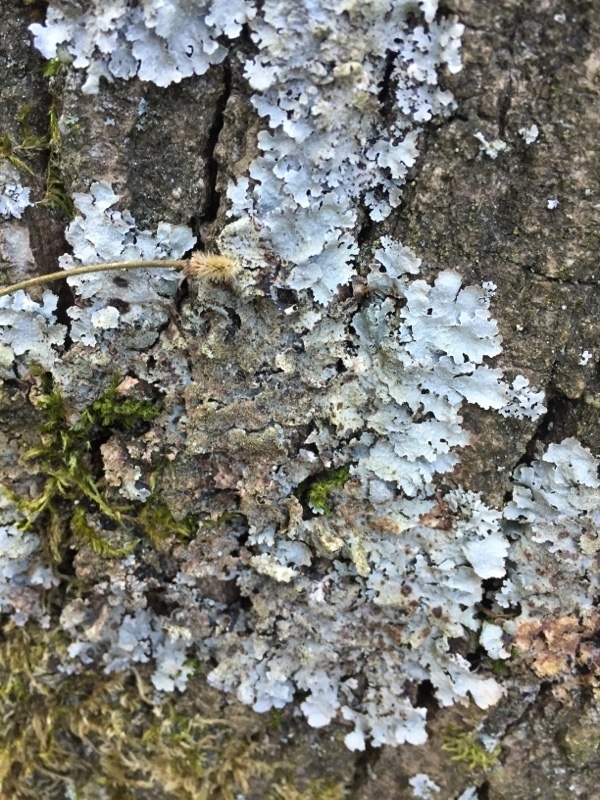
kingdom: Fungi
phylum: Ascomycota
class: Lecanoromycetes
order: Lecanorales
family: Parmeliaceae
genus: Parmelia
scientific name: Parmelia saxatilis
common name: Salted shield lichen
